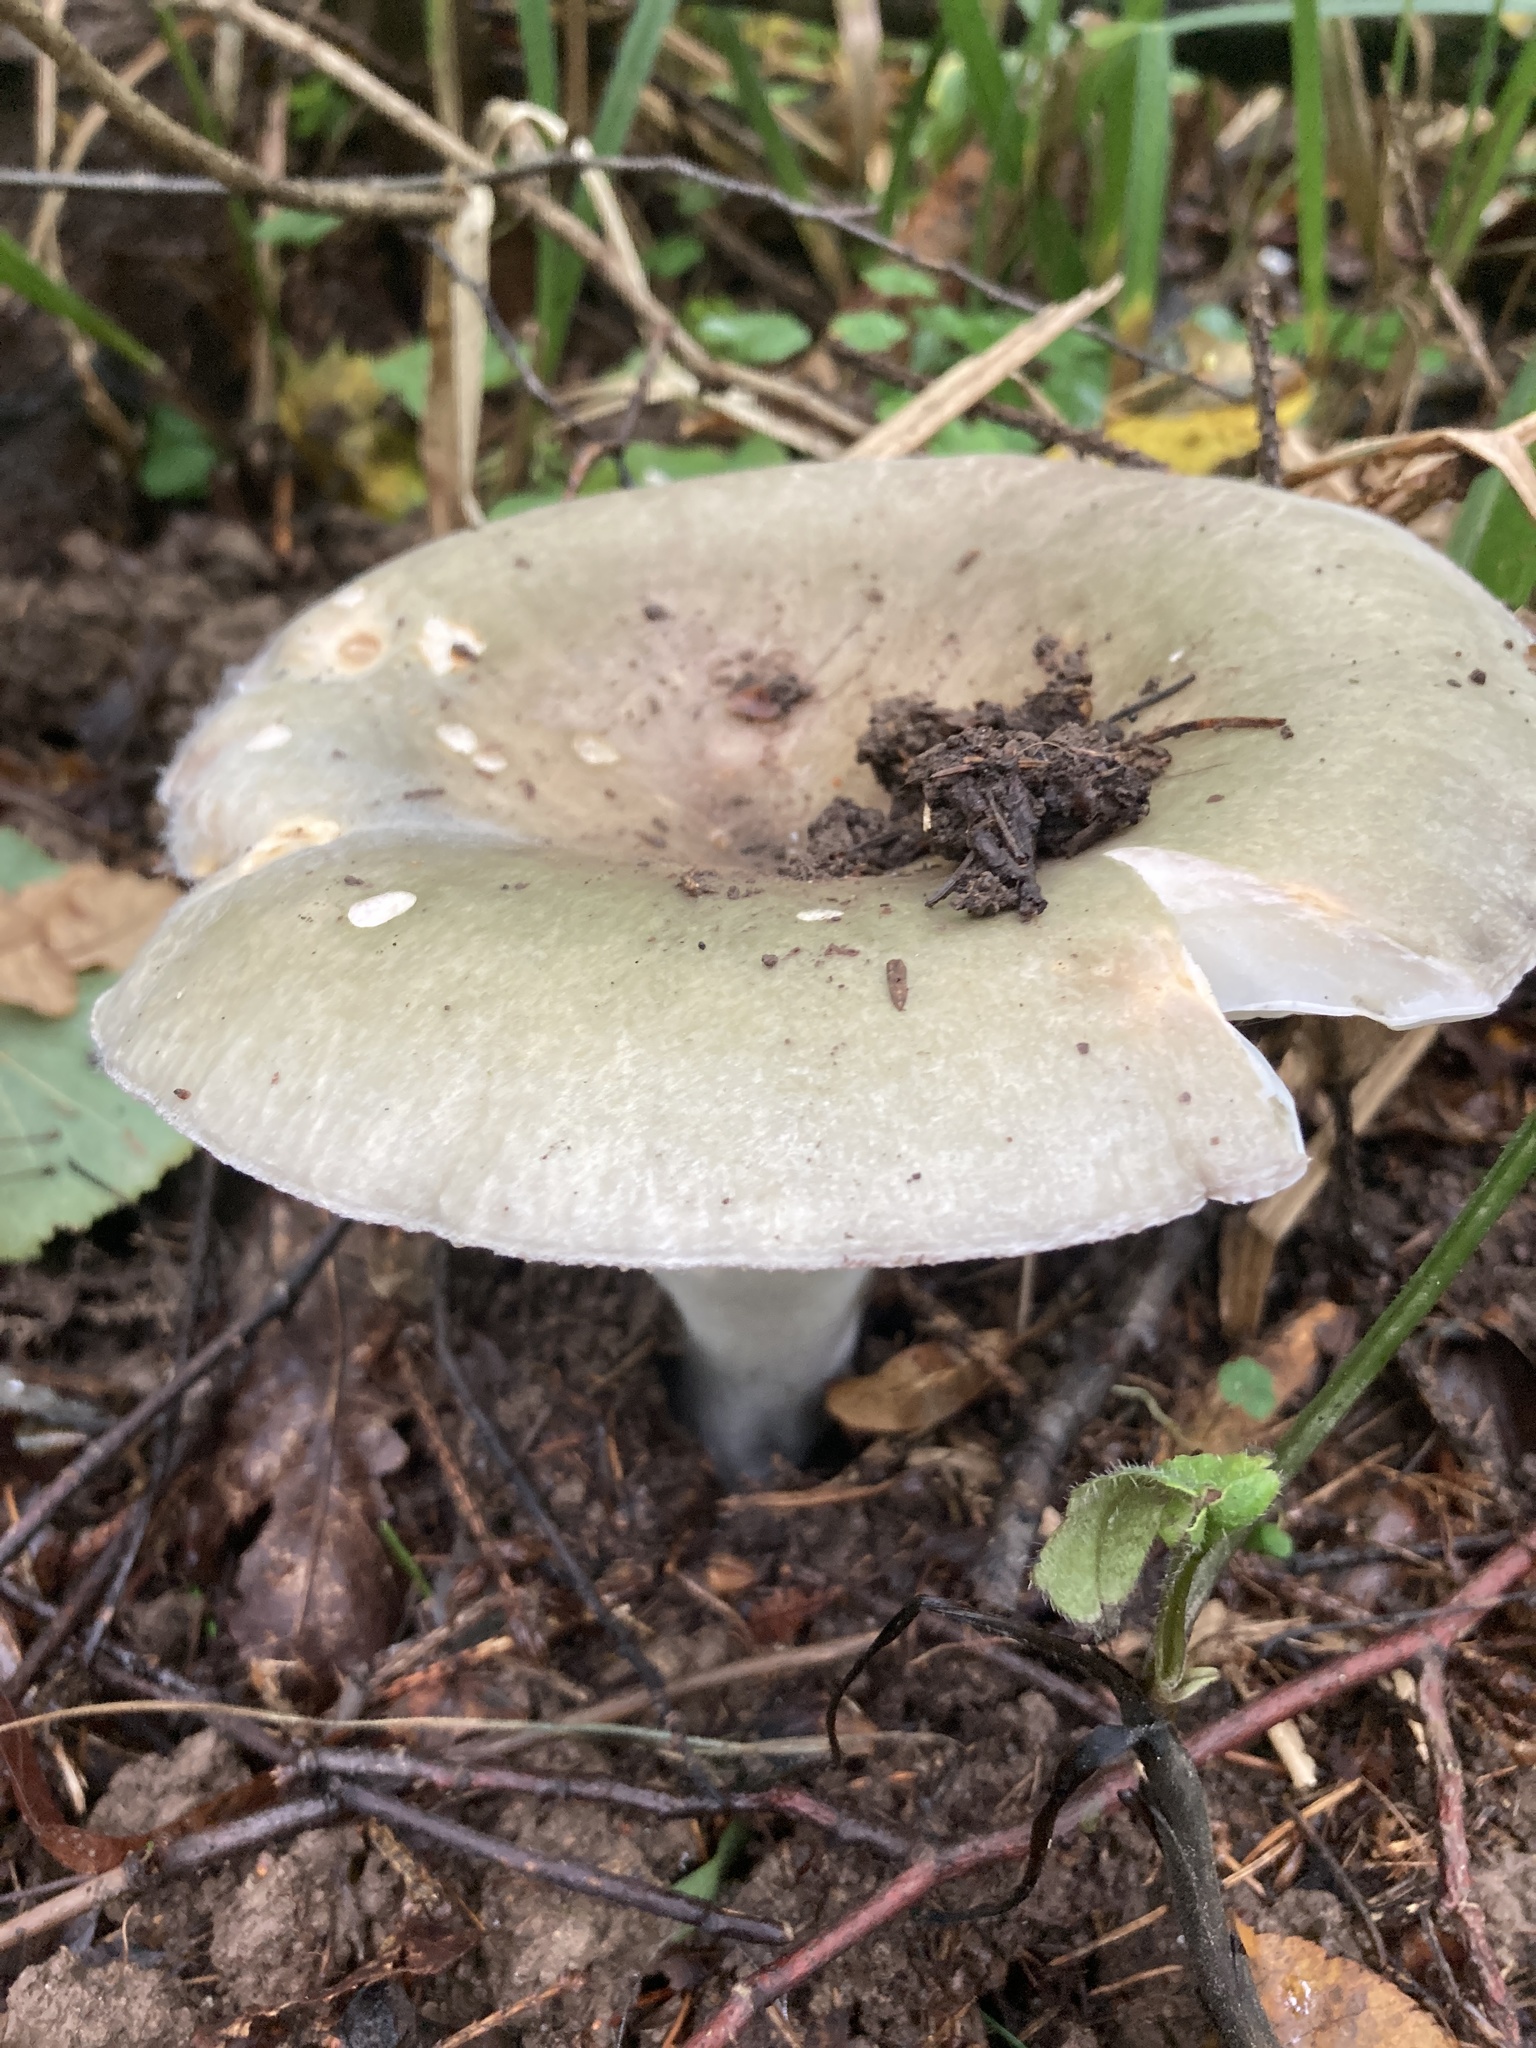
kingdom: Fungi
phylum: Basidiomycota
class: Agaricomycetes
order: Russulales
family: Russulaceae
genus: Russula
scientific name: Russula aeruginea
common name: Green brittlegill
